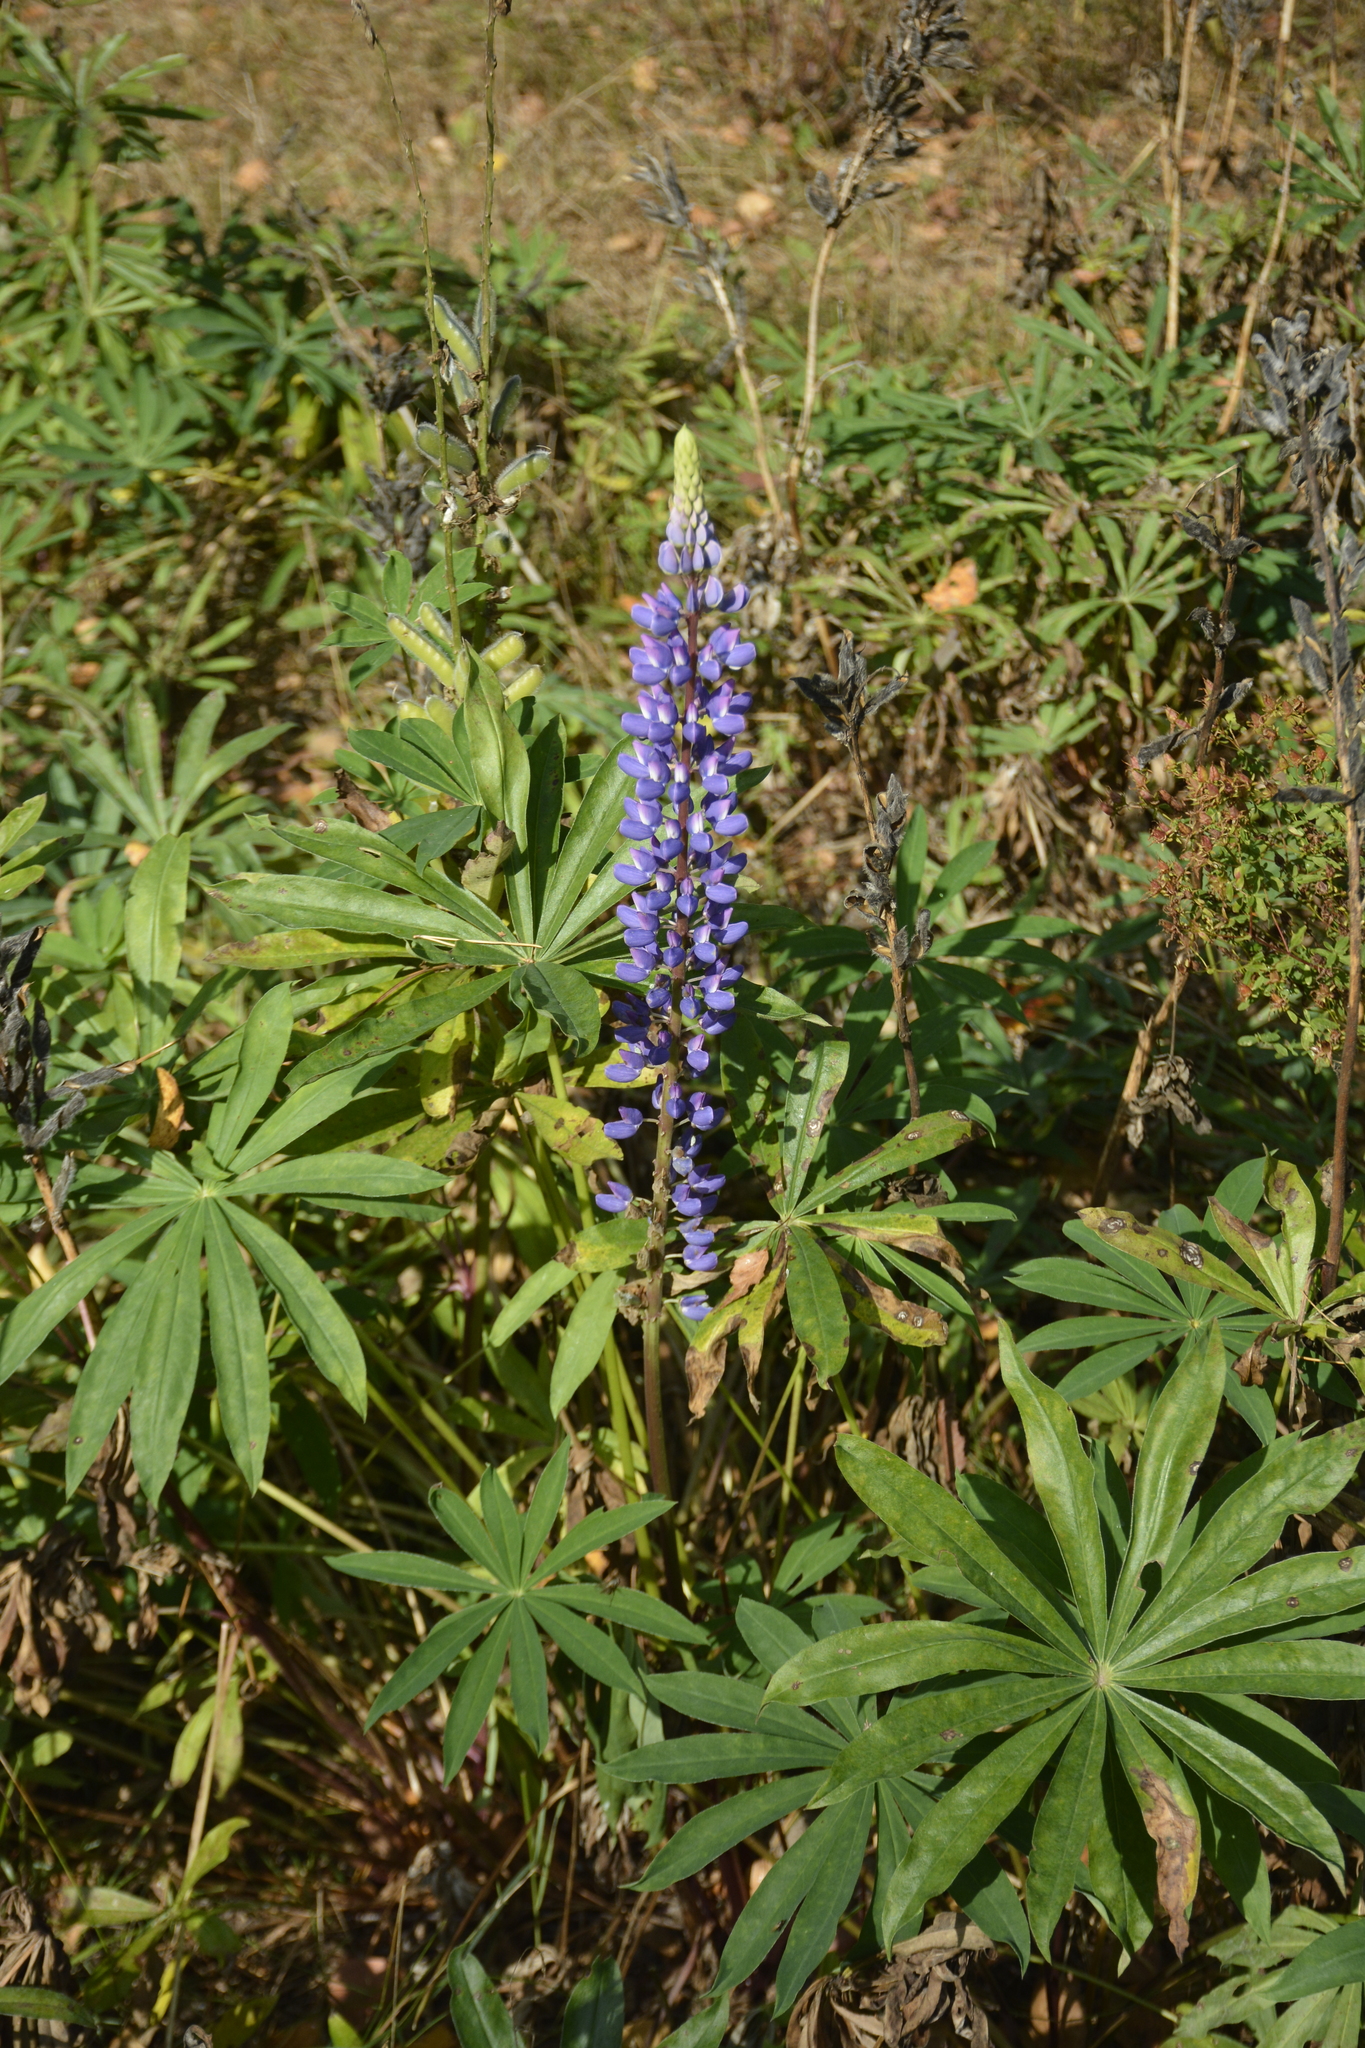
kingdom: Plantae
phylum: Tracheophyta
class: Magnoliopsida
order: Fabales
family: Fabaceae
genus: Lupinus
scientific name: Lupinus polyphyllus
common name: Garden lupin
